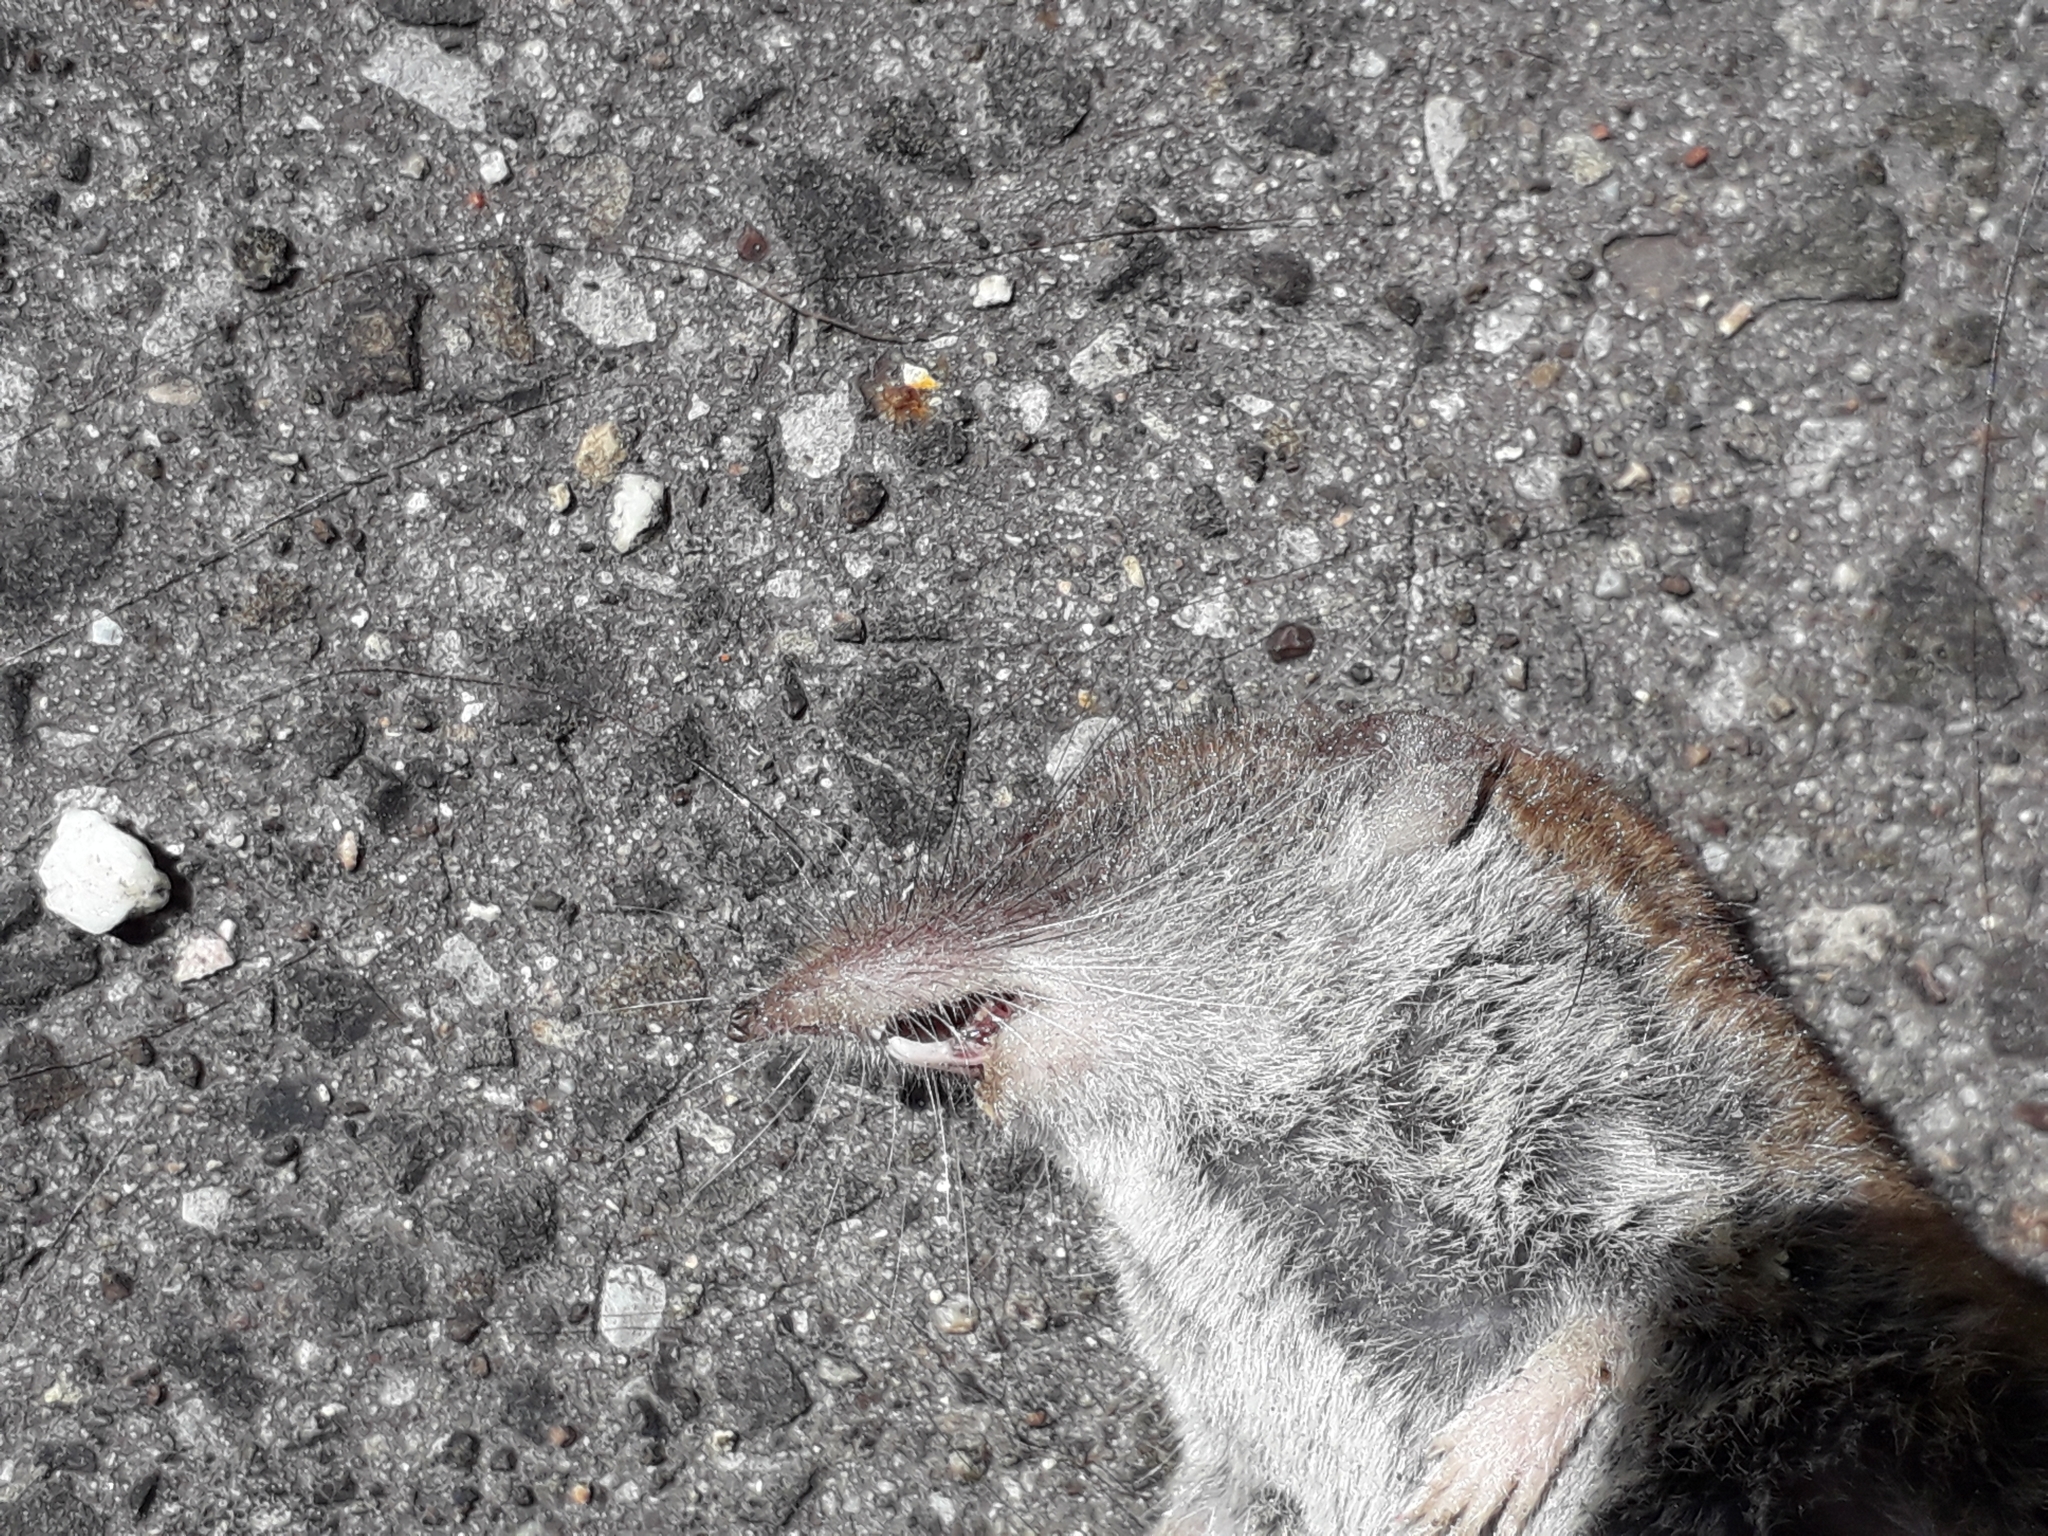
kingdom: Animalia
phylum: Chordata
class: Mammalia
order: Soricomorpha
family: Soricidae
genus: Crocidura
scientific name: Crocidura russula
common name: Greater white-toothed shrew
